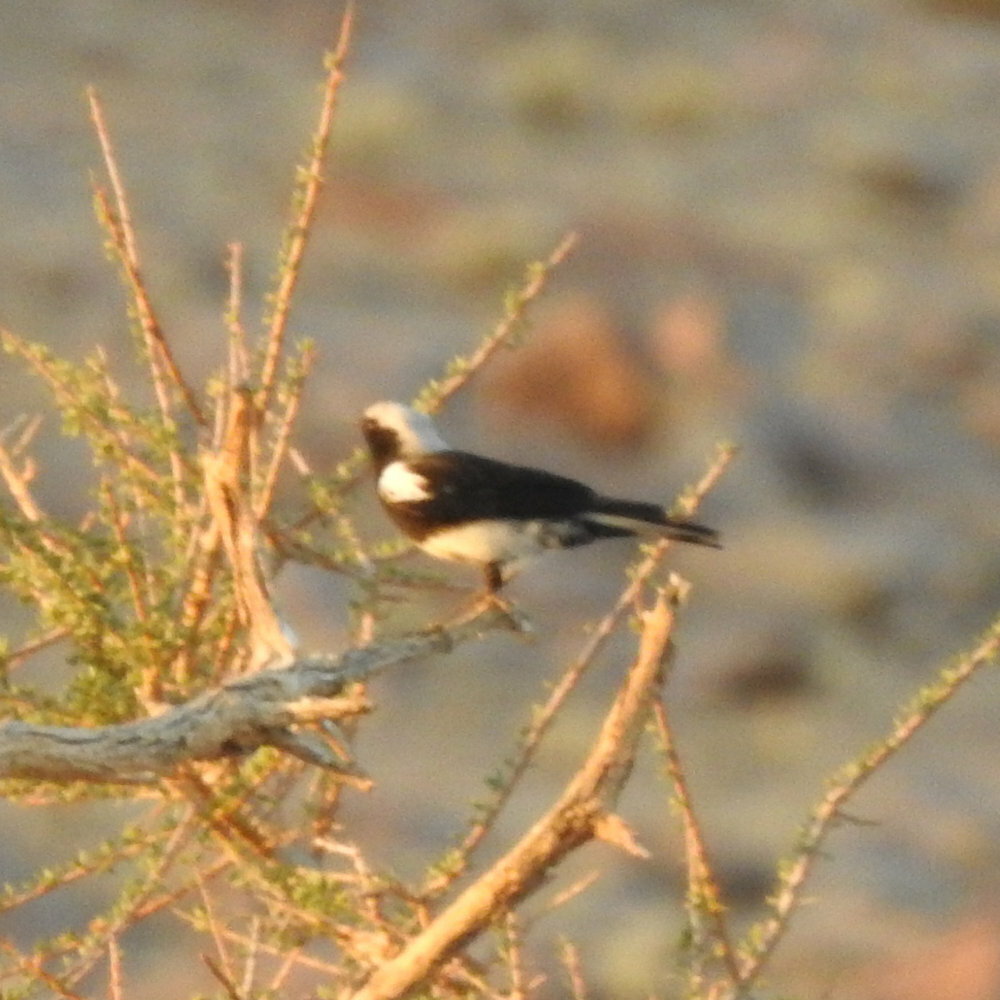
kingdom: Animalia
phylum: Chordata
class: Aves
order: Passeriformes
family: Muscicapidae
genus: Oenanthe
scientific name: Oenanthe monticola
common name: Mountain wheatear
